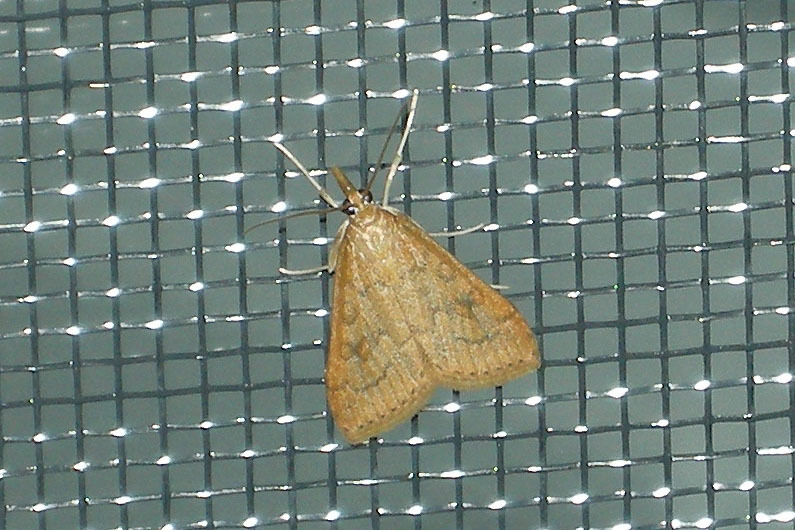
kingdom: Animalia
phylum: Arthropoda
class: Insecta
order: Lepidoptera
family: Crambidae
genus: Udea
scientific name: Udea rubigalis
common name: Celery leaftier moth
